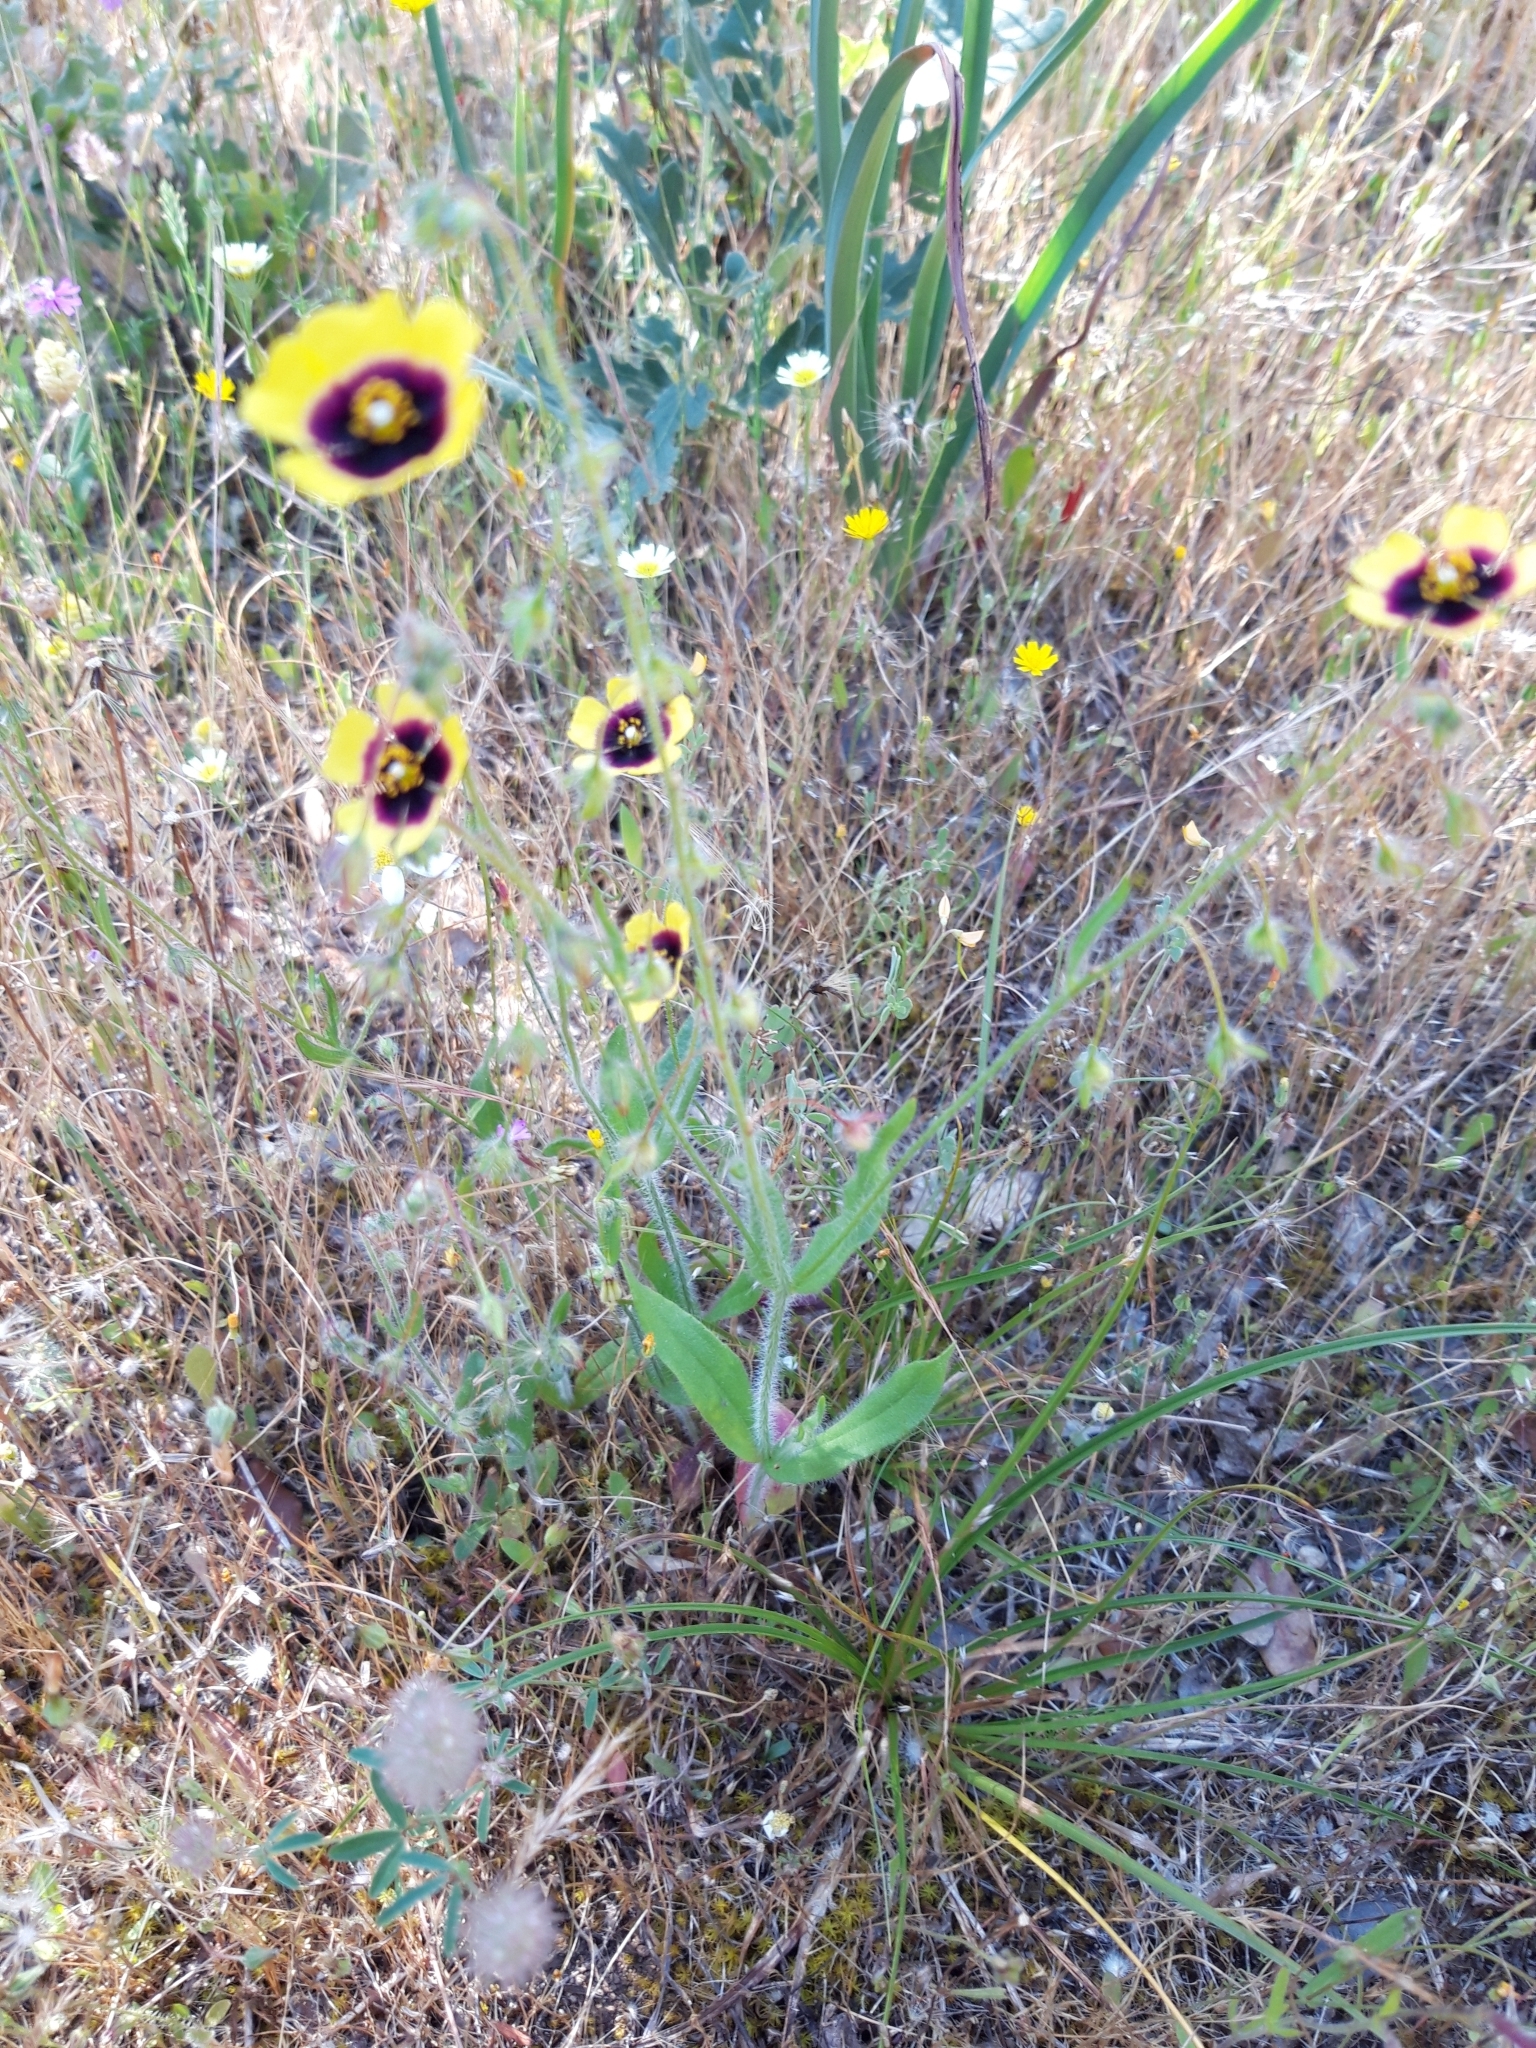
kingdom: Plantae
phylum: Tracheophyta
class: Magnoliopsida
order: Malvales
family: Cistaceae
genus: Tuberaria
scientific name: Tuberaria guttata
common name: Spotted rock-rose
